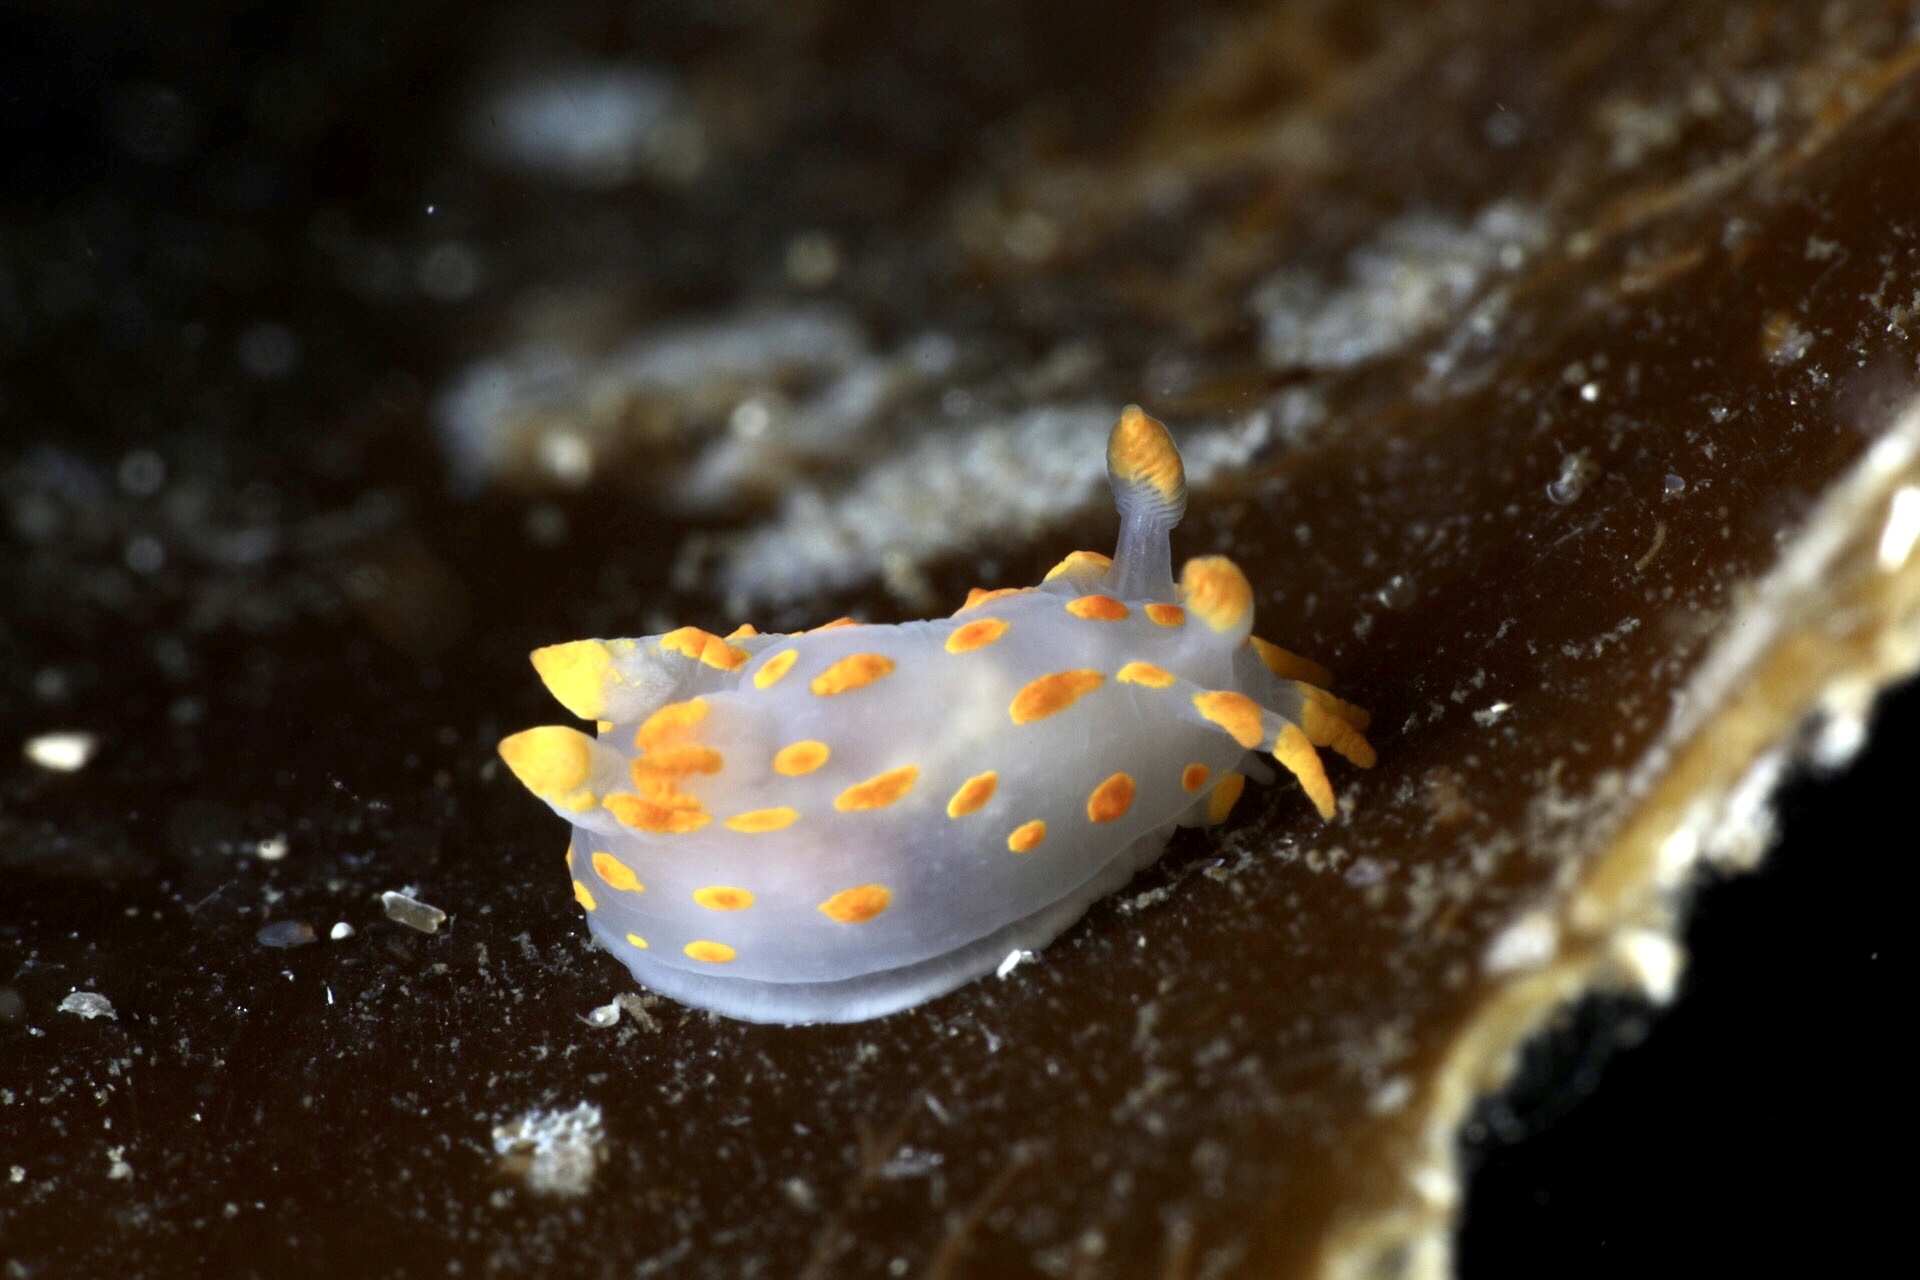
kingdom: Animalia
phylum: Mollusca
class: Gastropoda
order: Nudibranchia
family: Polyceridae
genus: Polycera
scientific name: Polycera quadrilineata
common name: Four-striped polycera
